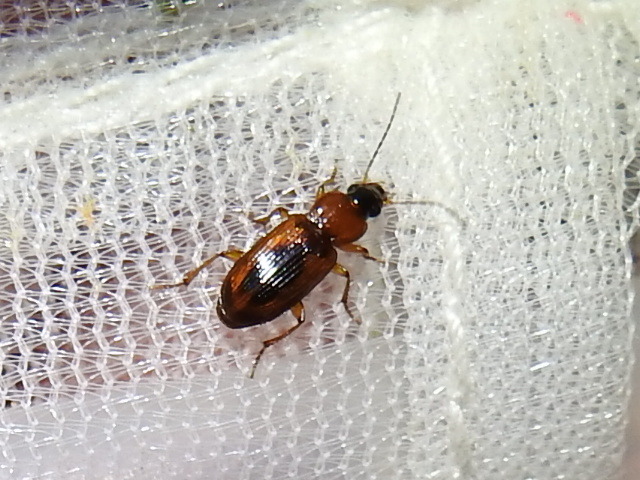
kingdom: Animalia
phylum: Arthropoda
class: Insecta
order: Coleoptera
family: Carabidae
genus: Stenolophus
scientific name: Stenolophus dissimilis
